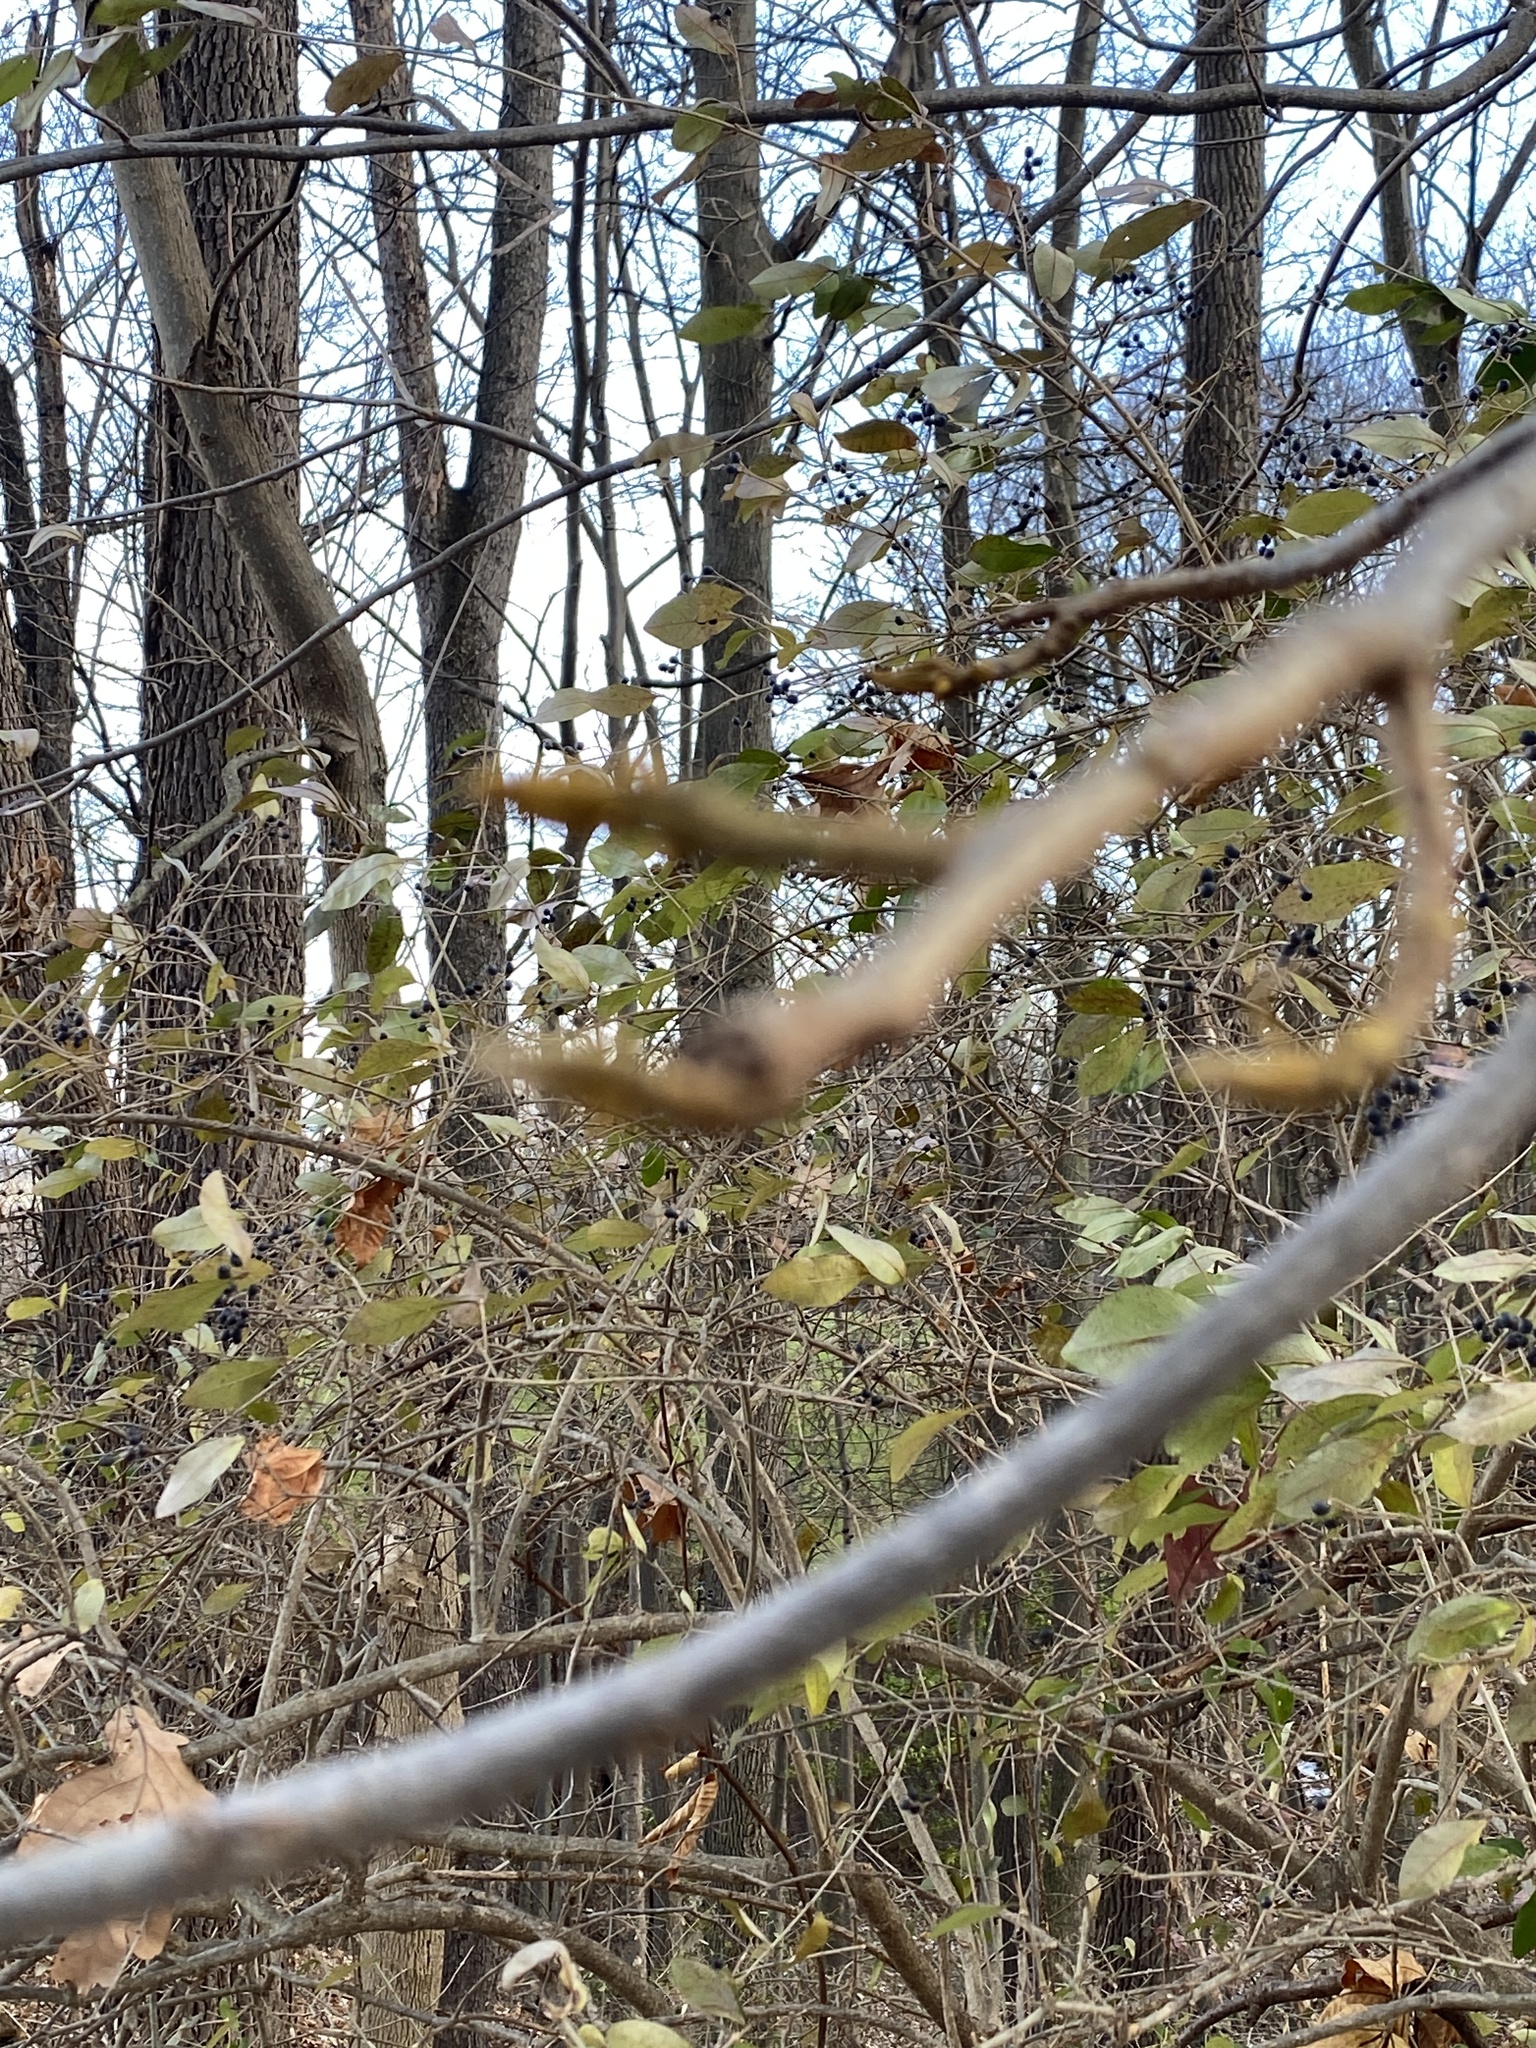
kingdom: Plantae
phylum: Tracheophyta
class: Magnoliopsida
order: Fagales
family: Juglandaceae
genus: Carya
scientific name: Carya cordiformis
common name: Bitternut hickory
